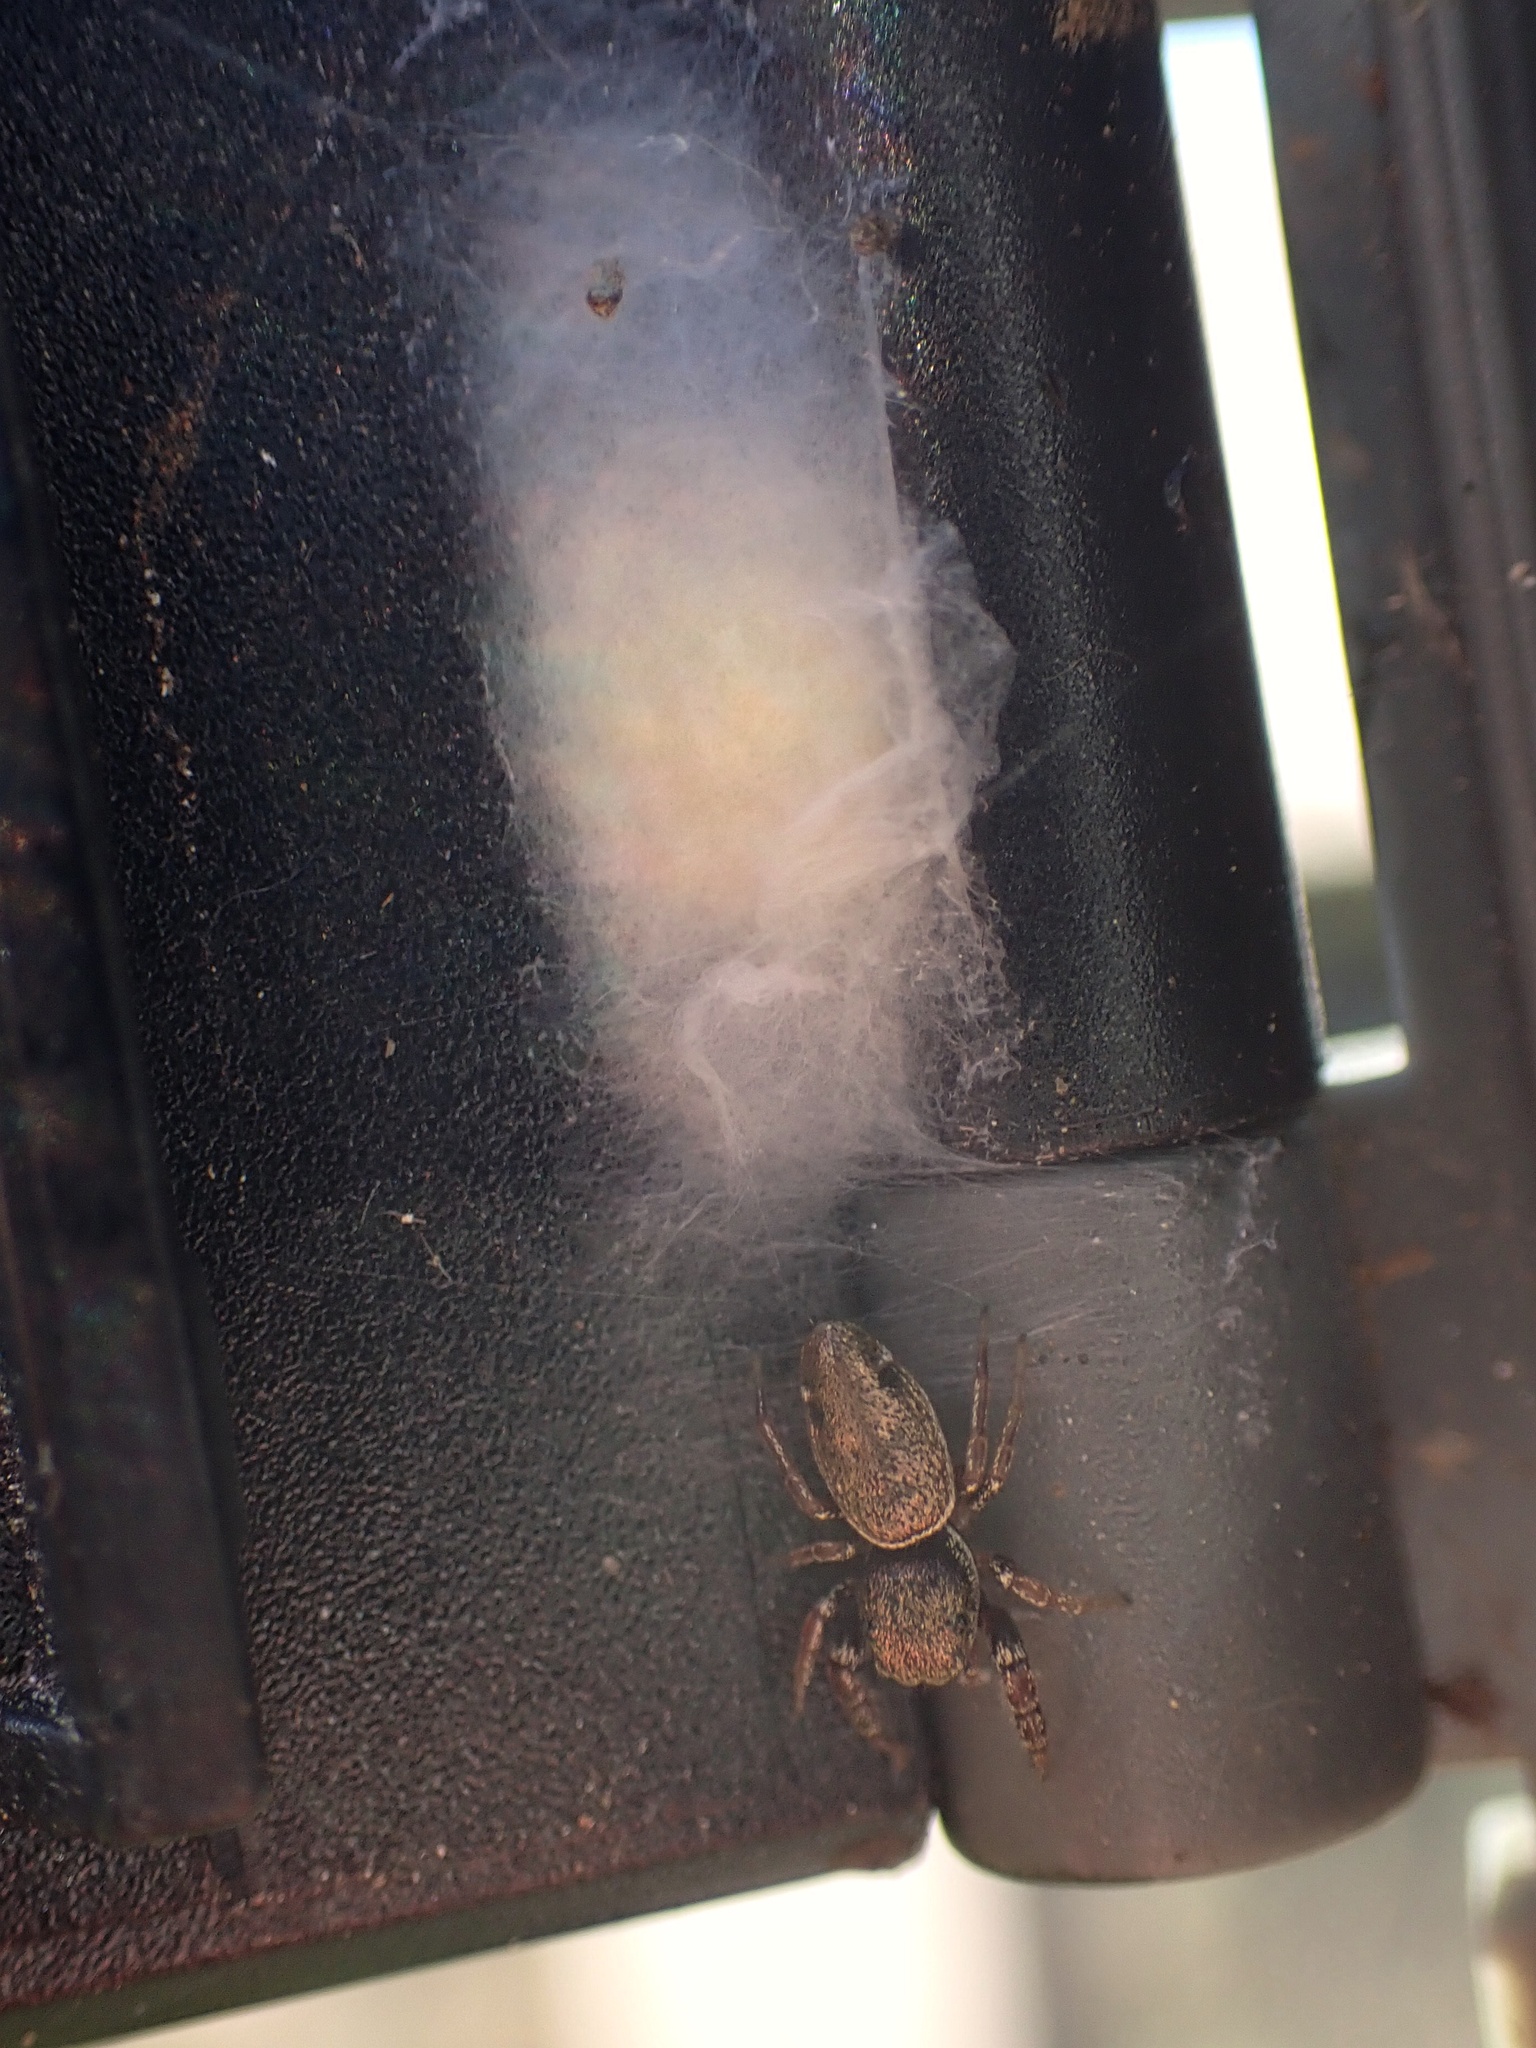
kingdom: Animalia
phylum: Arthropoda
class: Arachnida
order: Araneae
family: Salticidae
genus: Sassacus
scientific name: Sassacus vitis
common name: Jumping spiders
